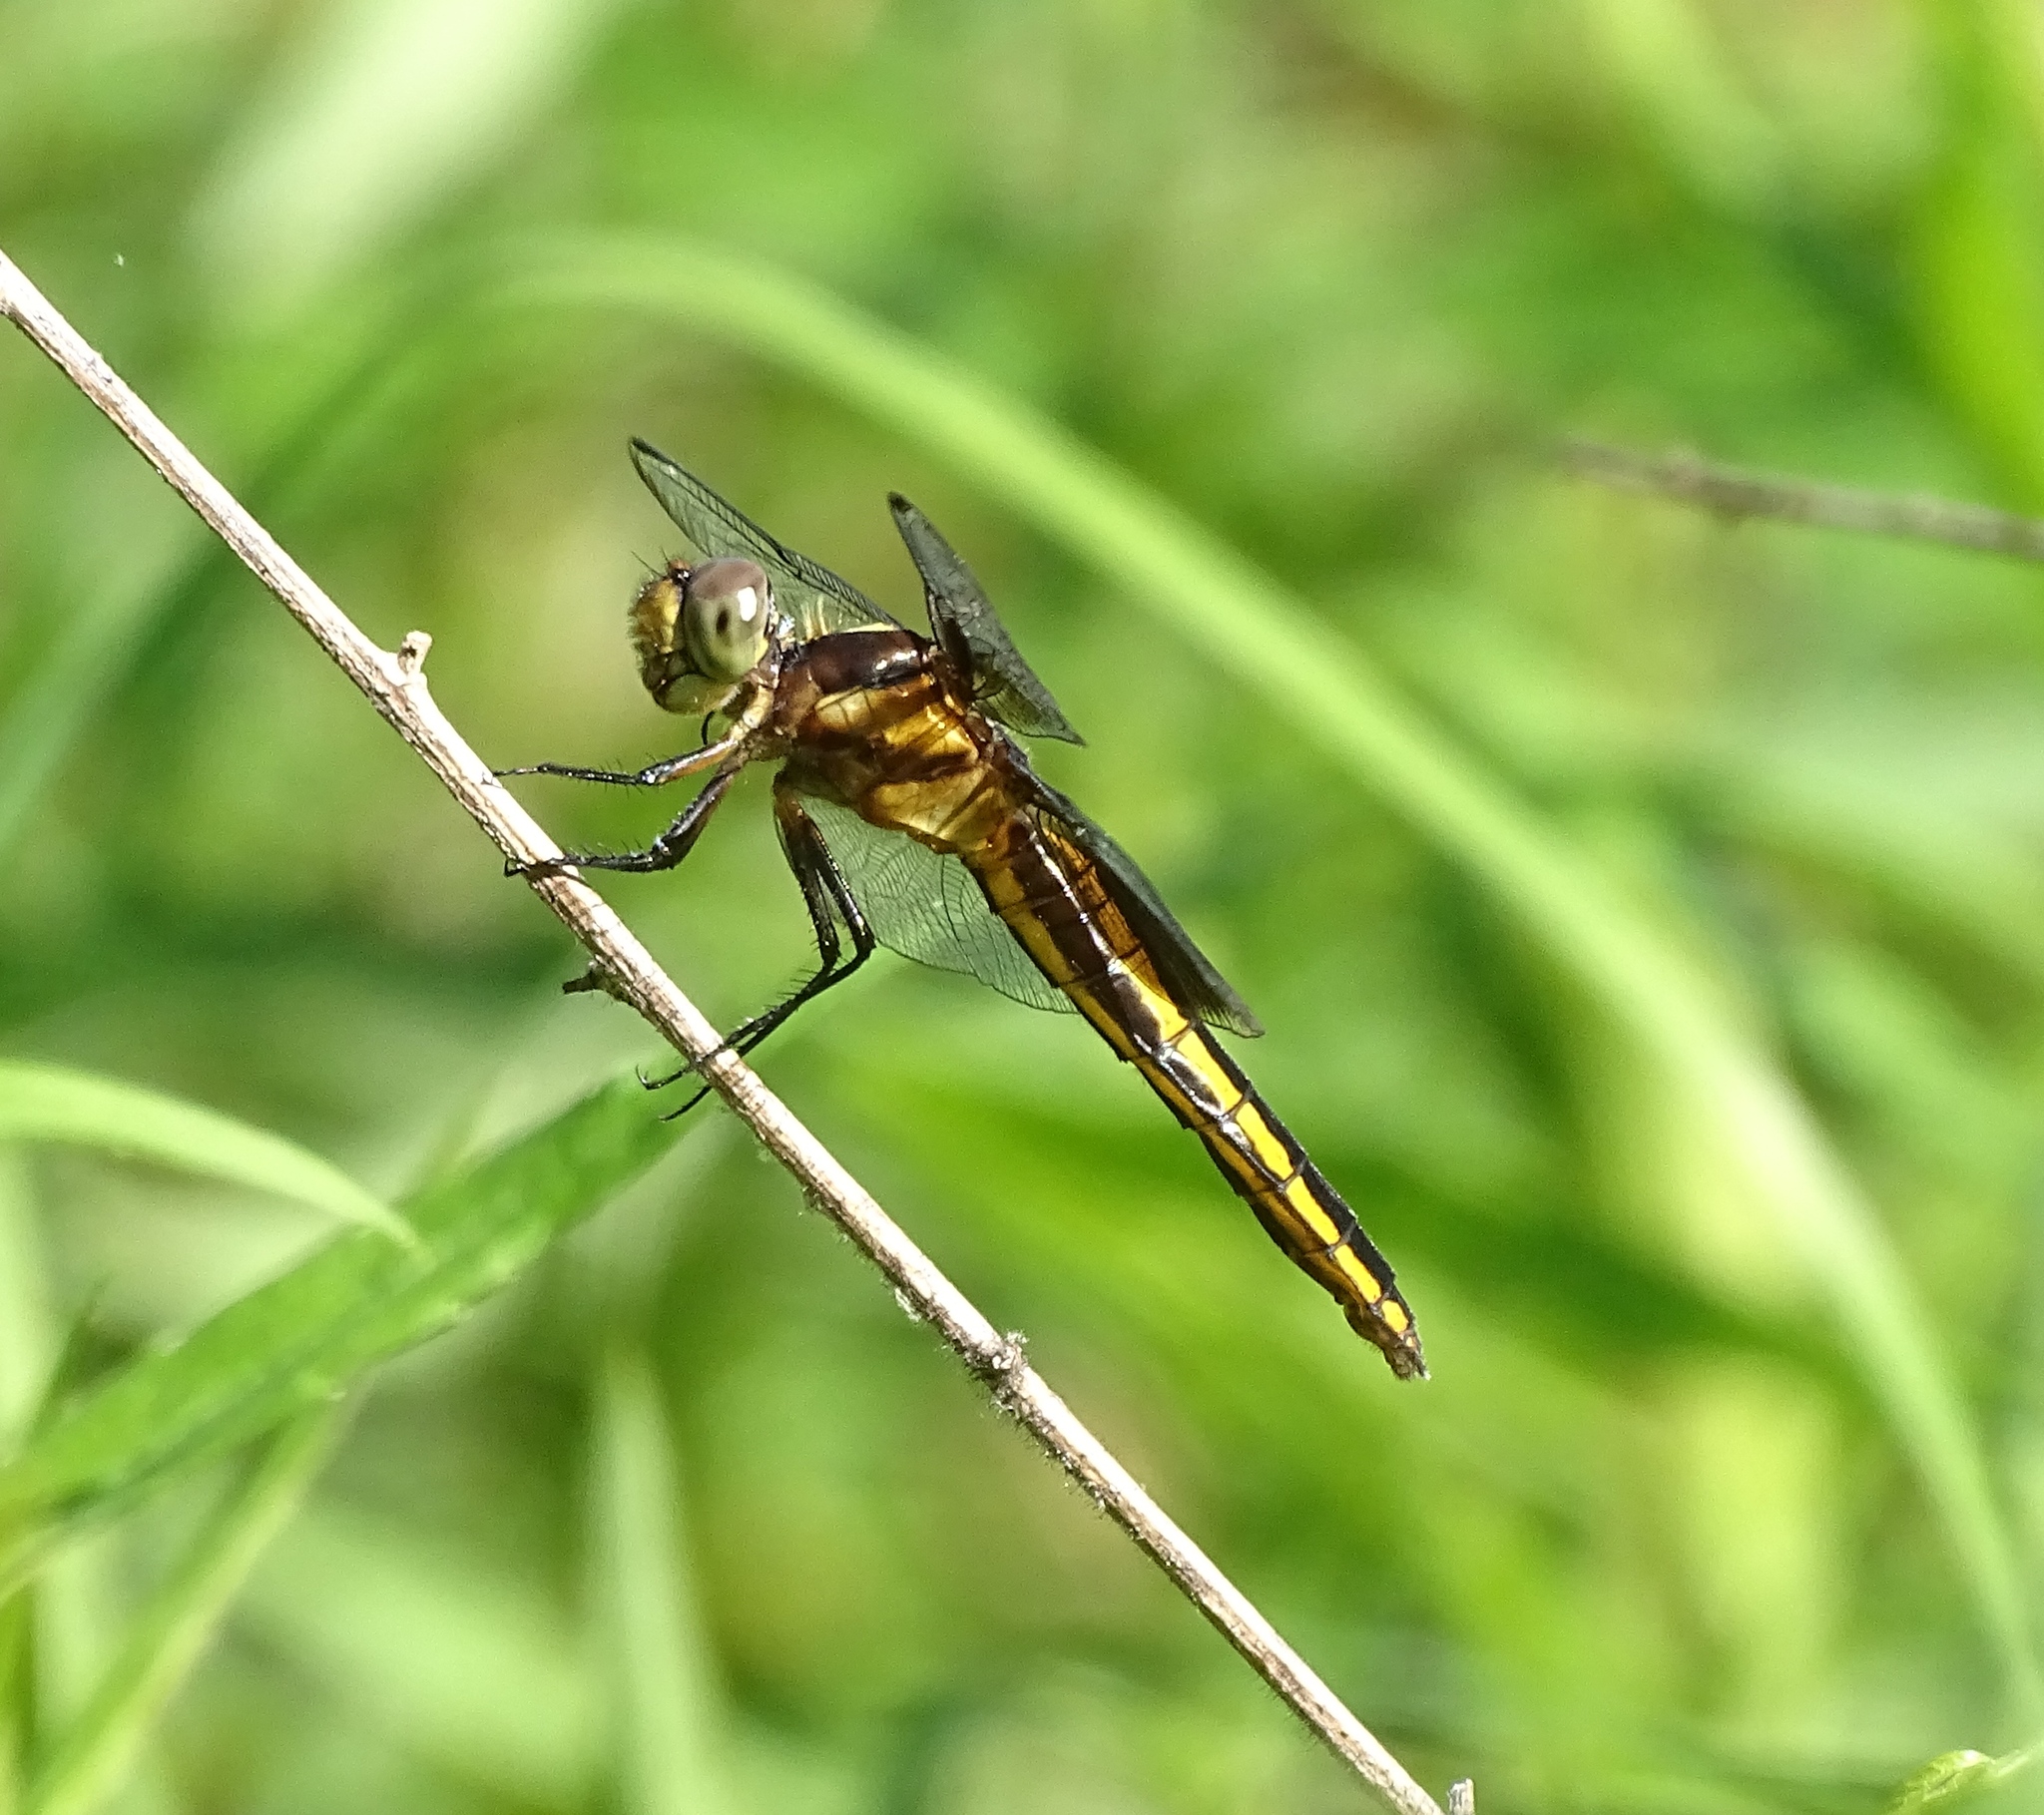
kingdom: Animalia
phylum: Arthropoda
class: Insecta
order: Odonata
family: Libellulidae
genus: Libellula
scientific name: Libellula luctuosa
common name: Widow skimmer
